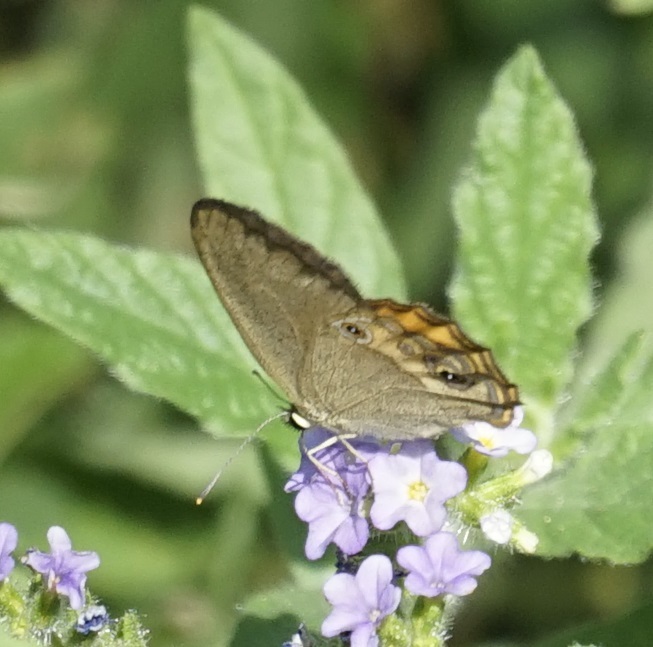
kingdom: Animalia
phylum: Arthropoda
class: Insecta
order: Lepidoptera
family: Nymphalidae
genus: Hypocysta
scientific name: Hypocysta metirius
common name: Brown ringlet
